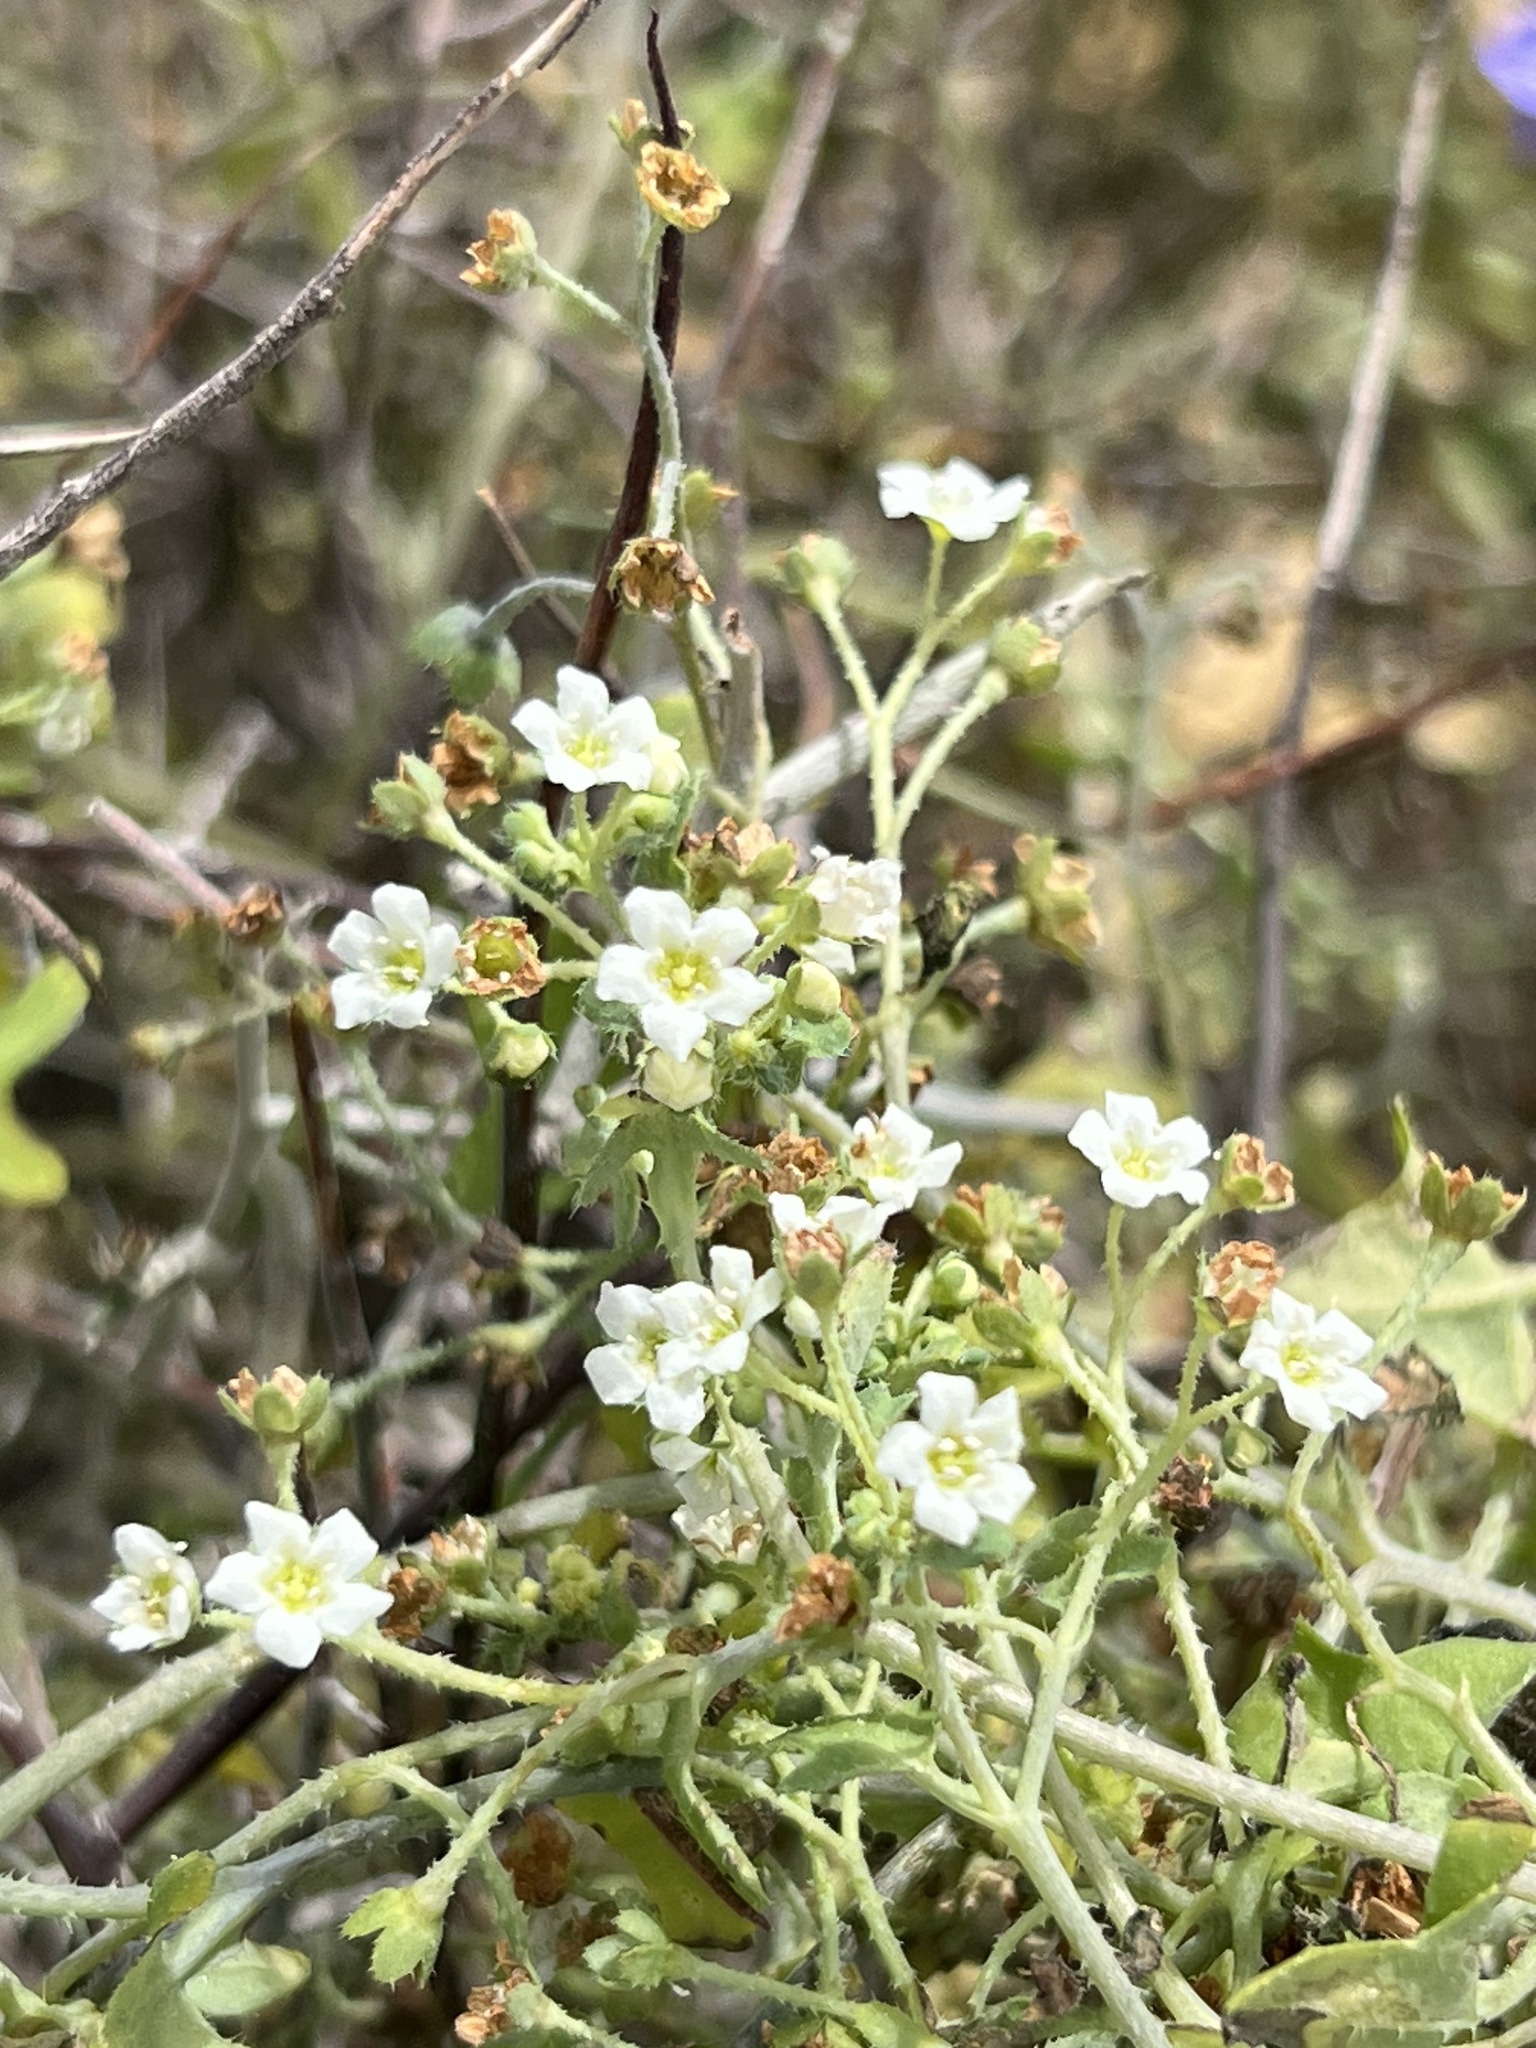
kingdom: Plantae
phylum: Tracheophyta
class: Magnoliopsida
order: Boraginales
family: Hydrophyllaceae
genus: Pholistoma
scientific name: Pholistoma membranaceum
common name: White fiesta-flower
